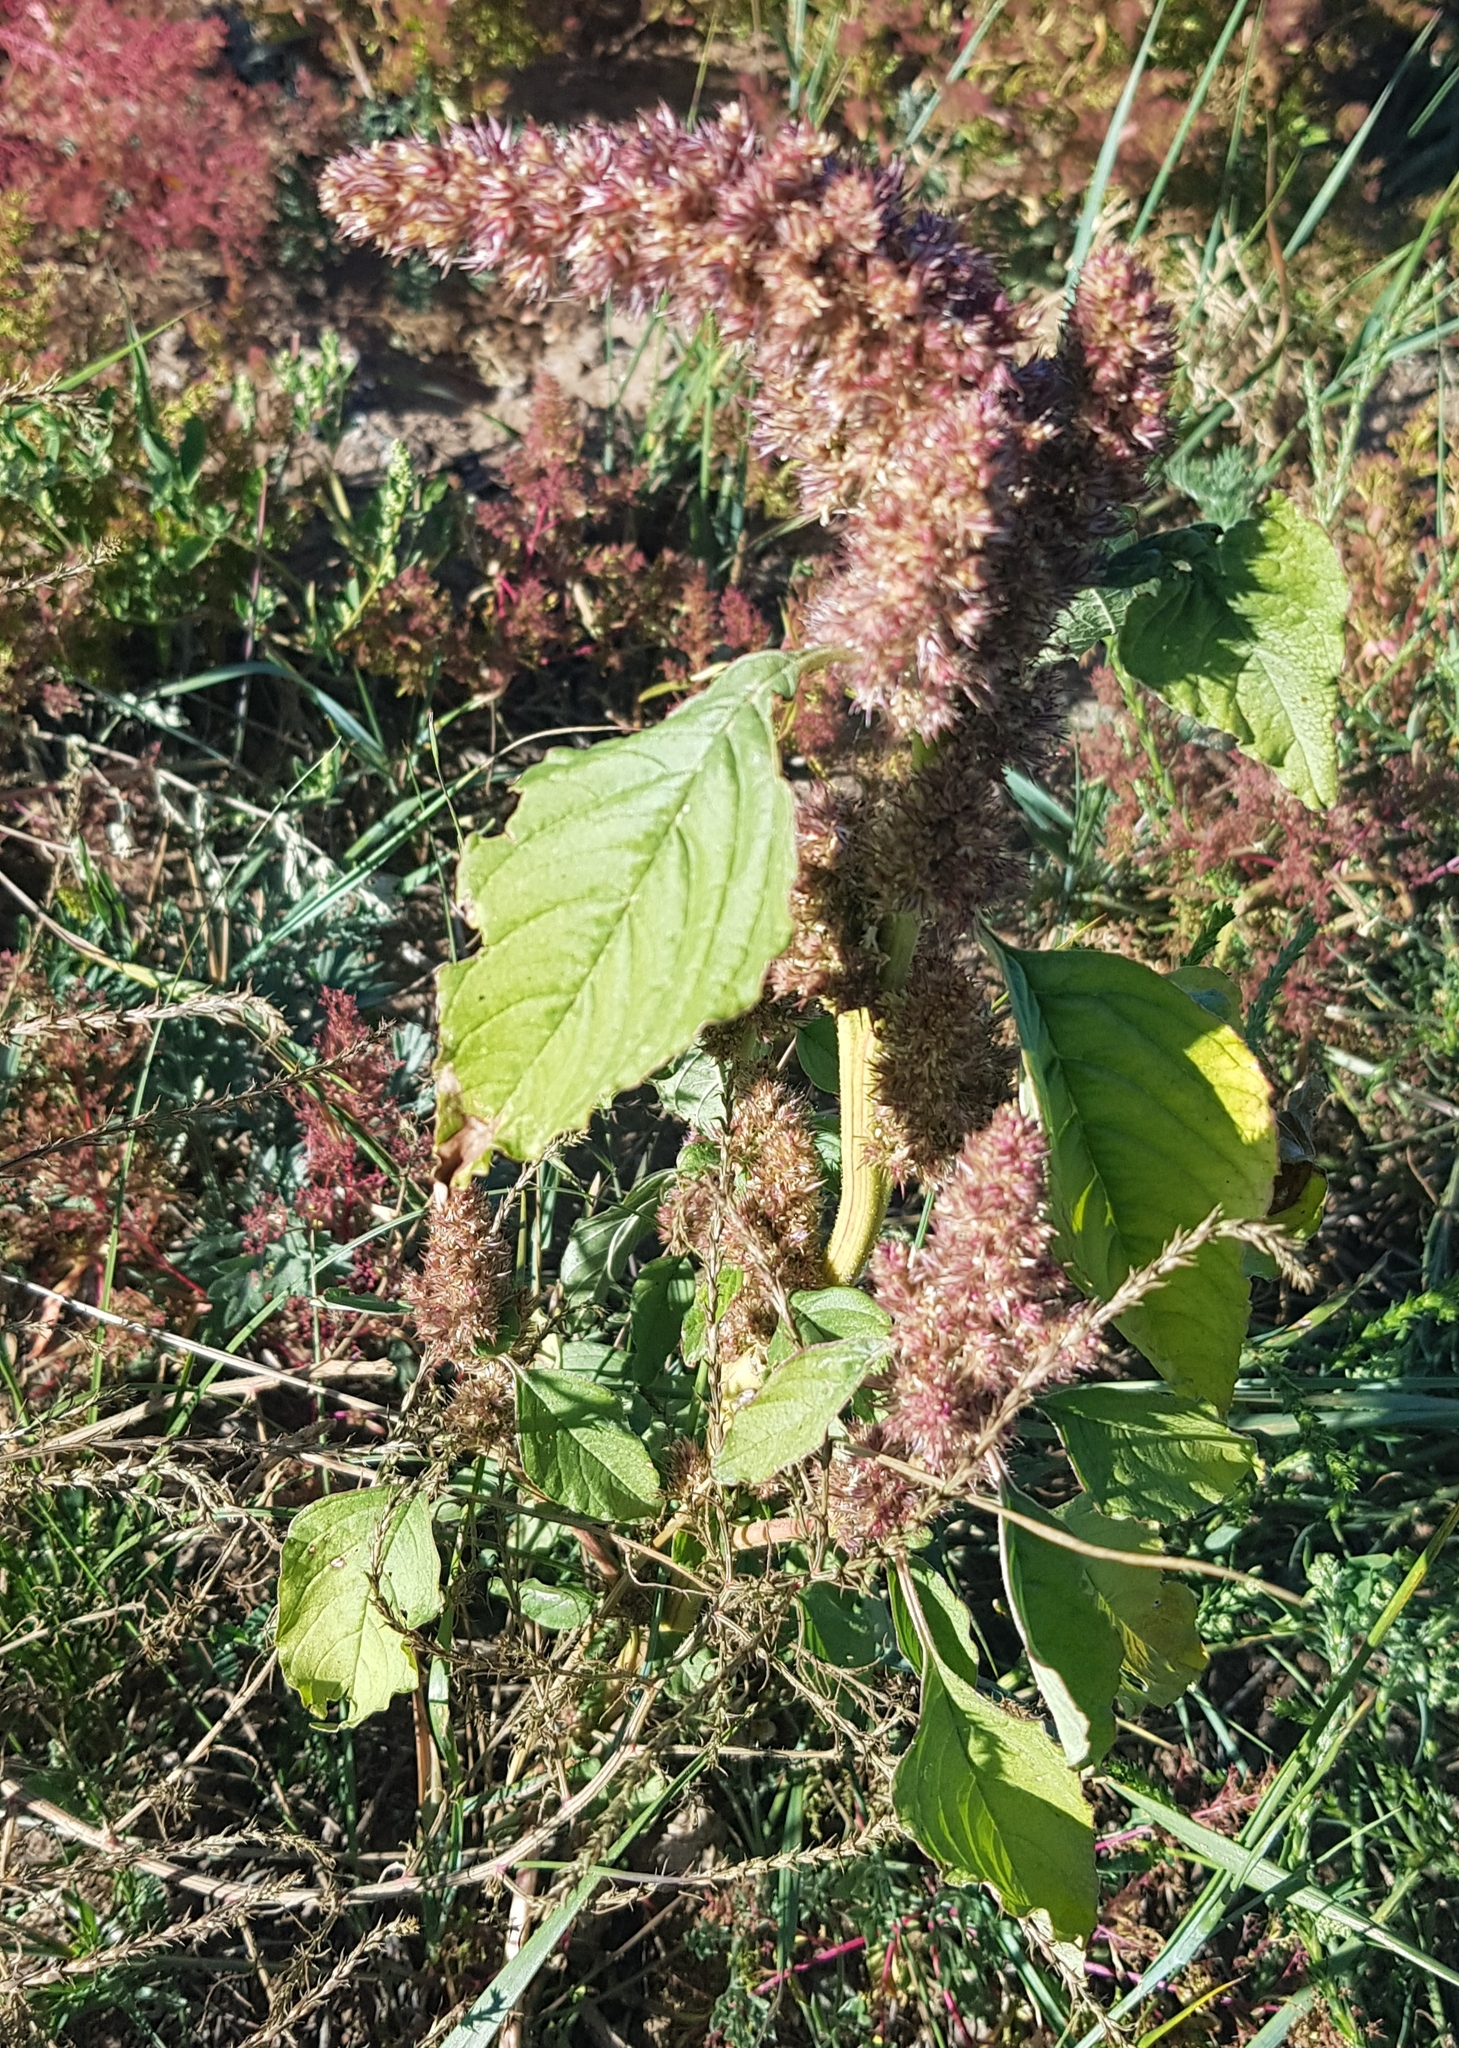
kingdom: Plantae
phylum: Tracheophyta
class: Magnoliopsida
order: Caryophyllales
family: Amaranthaceae
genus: Amaranthus
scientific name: Amaranthus cruentus
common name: Purple amaranth
